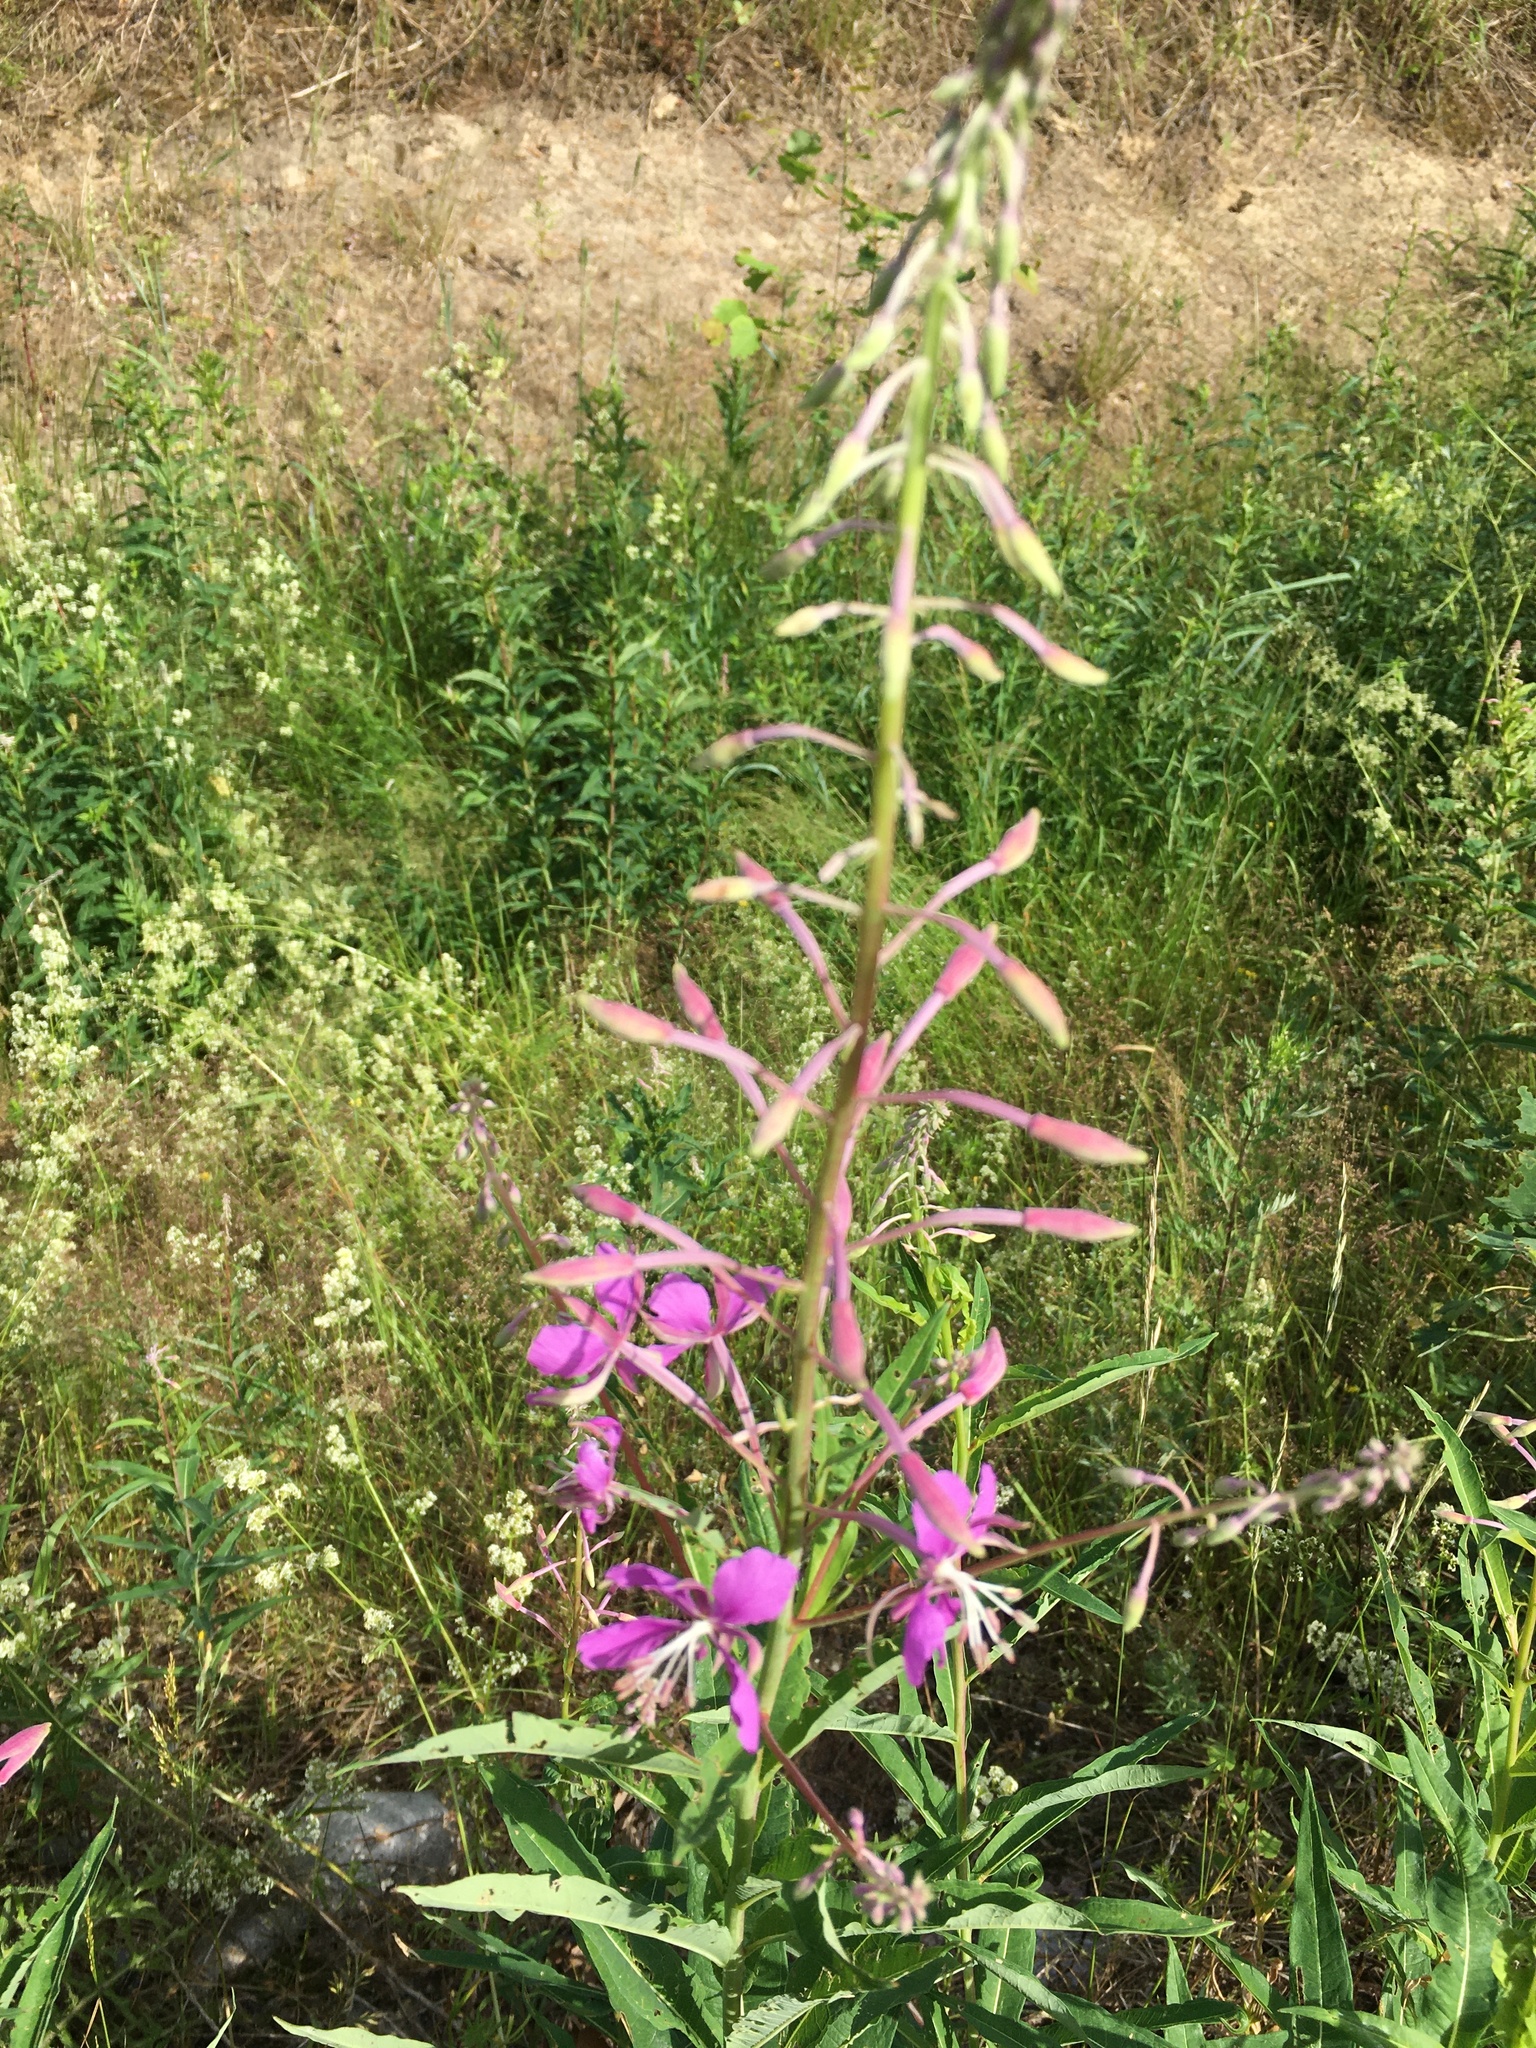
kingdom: Plantae
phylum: Tracheophyta
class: Magnoliopsida
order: Myrtales
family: Onagraceae
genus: Chamaenerion
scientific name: Chamaenerion angustifolium
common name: Fireweed
